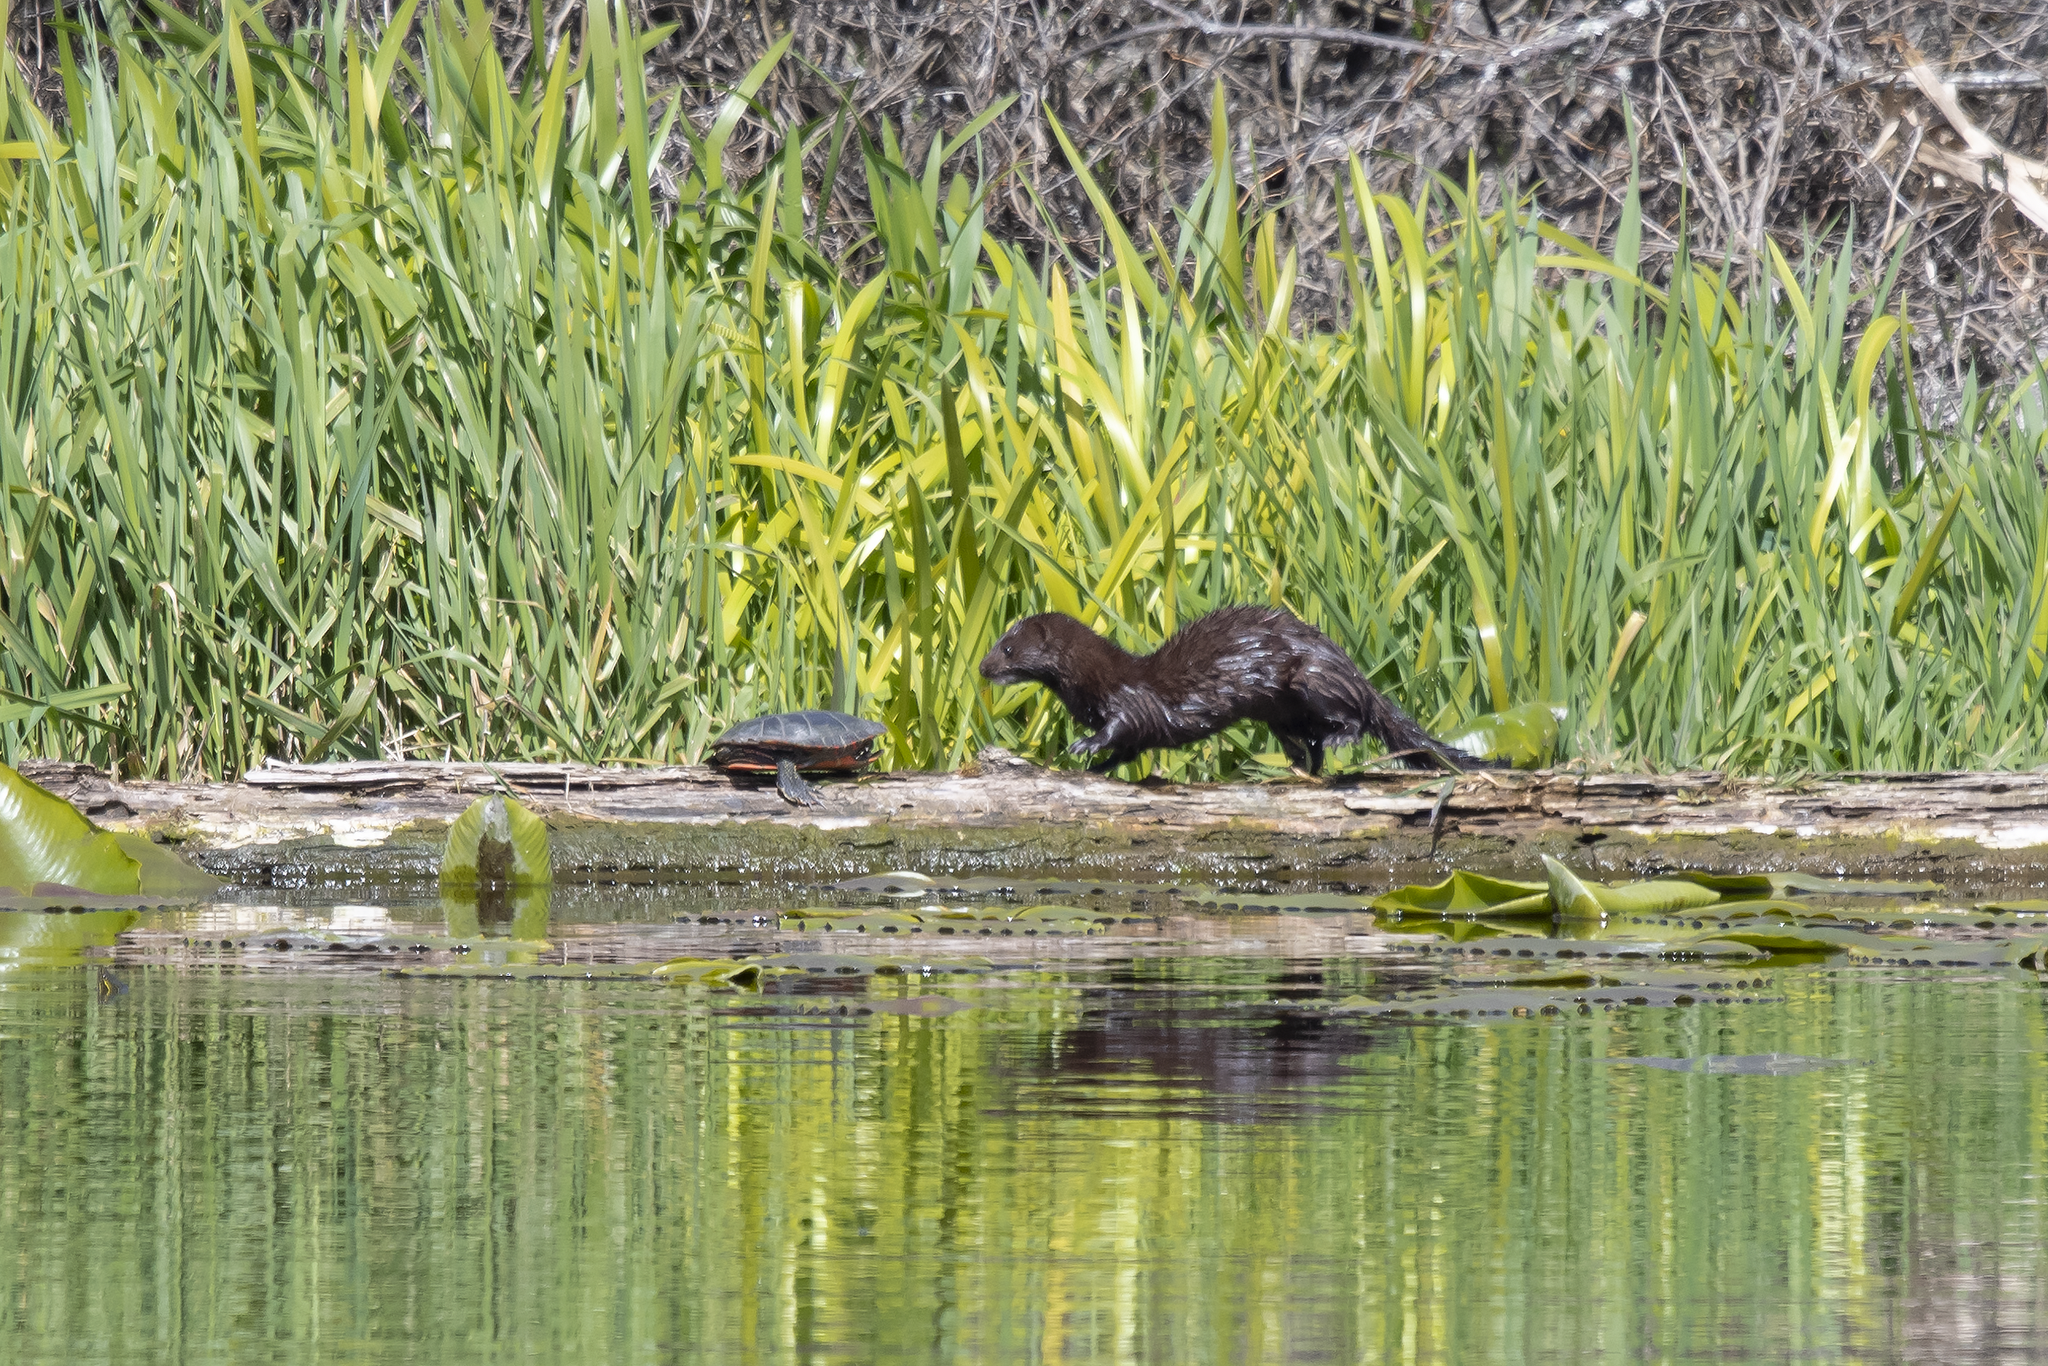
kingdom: Animalia
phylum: Chordata
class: Mammalia
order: Carnivora
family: Mustelidae
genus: Mustela
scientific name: Mustela
